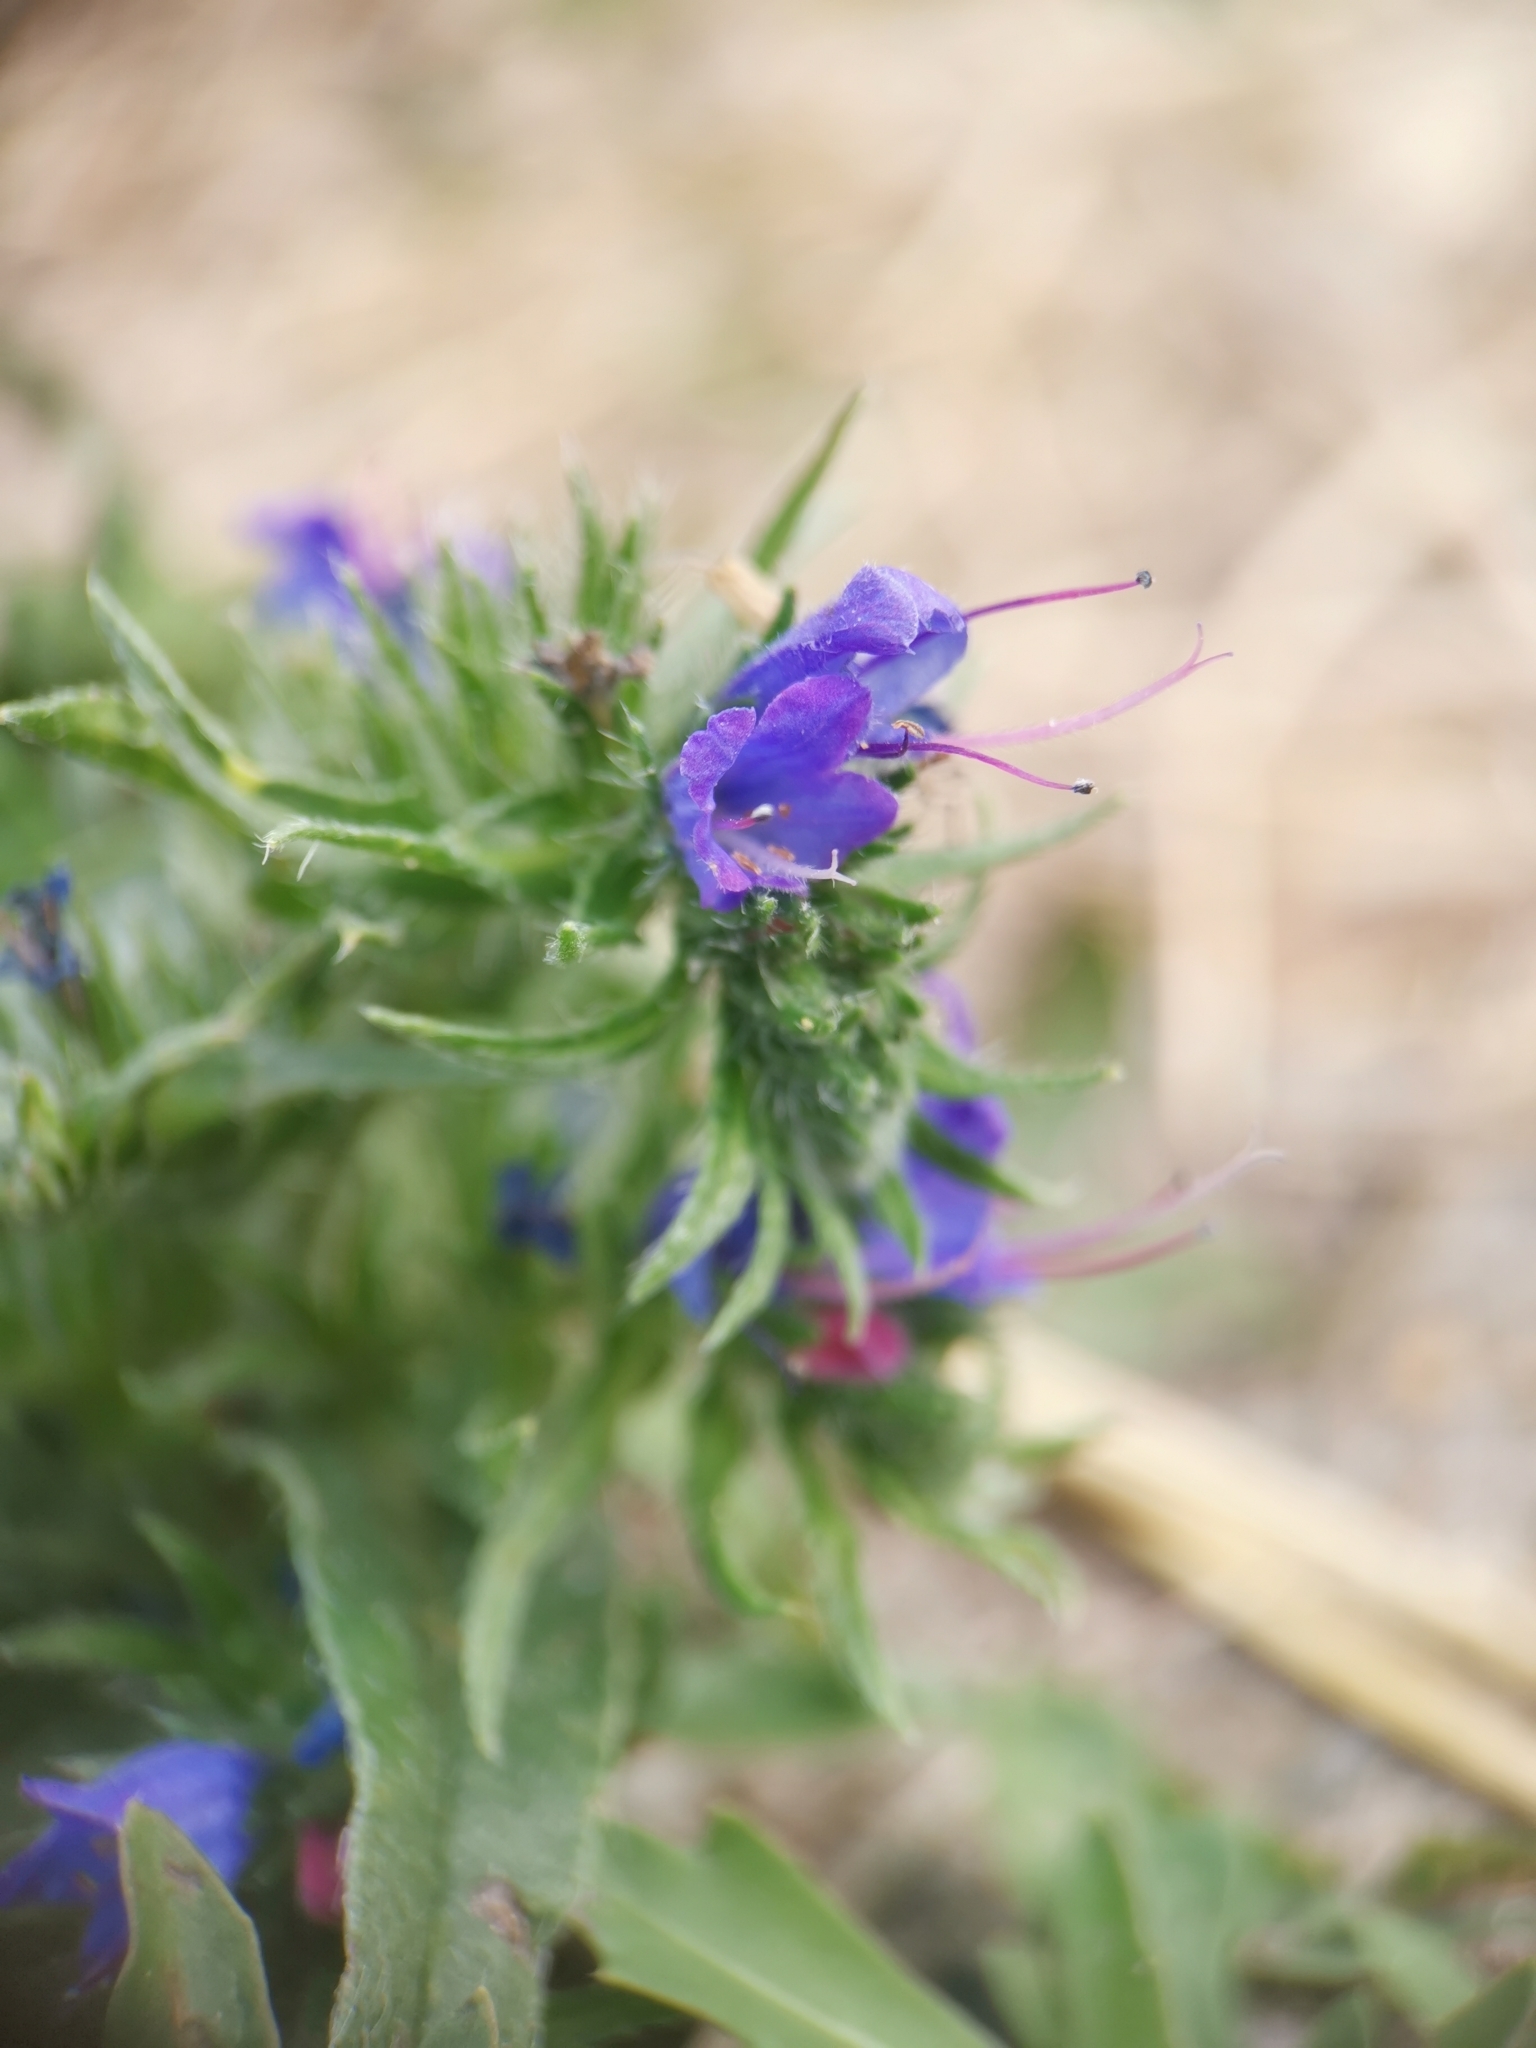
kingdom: Plantae
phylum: Tracheophyta
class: Magnoliopsida
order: Boraginales
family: Boraginaceae
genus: Echium
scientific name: Echium vulgare
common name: Common viper's bugloss
